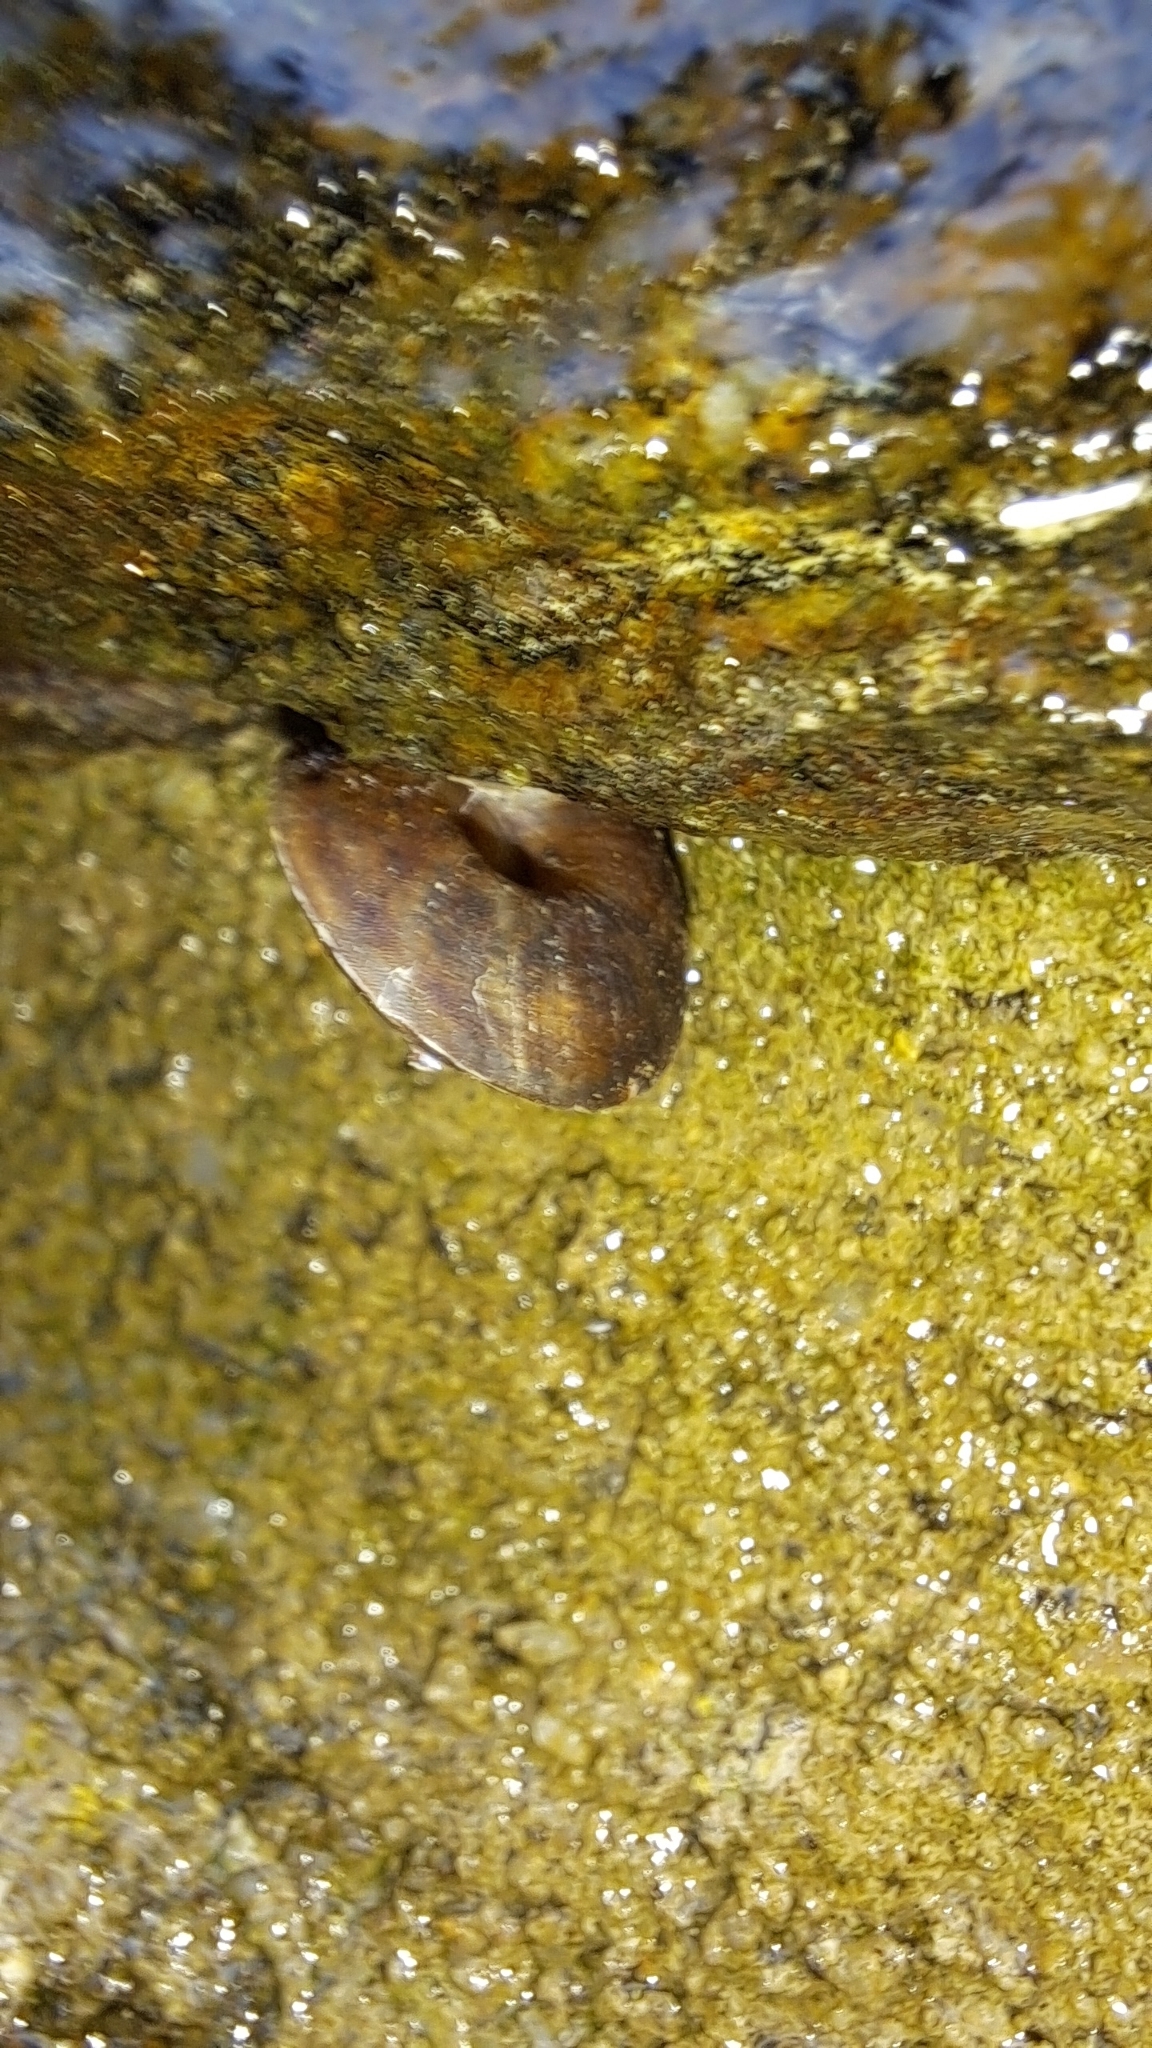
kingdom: Animalia
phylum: Mollusca
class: Gastropoda
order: Stylommatophora
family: Helicidae
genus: Helicigona
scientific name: Helicigona lapicida
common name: Lapidary snail
